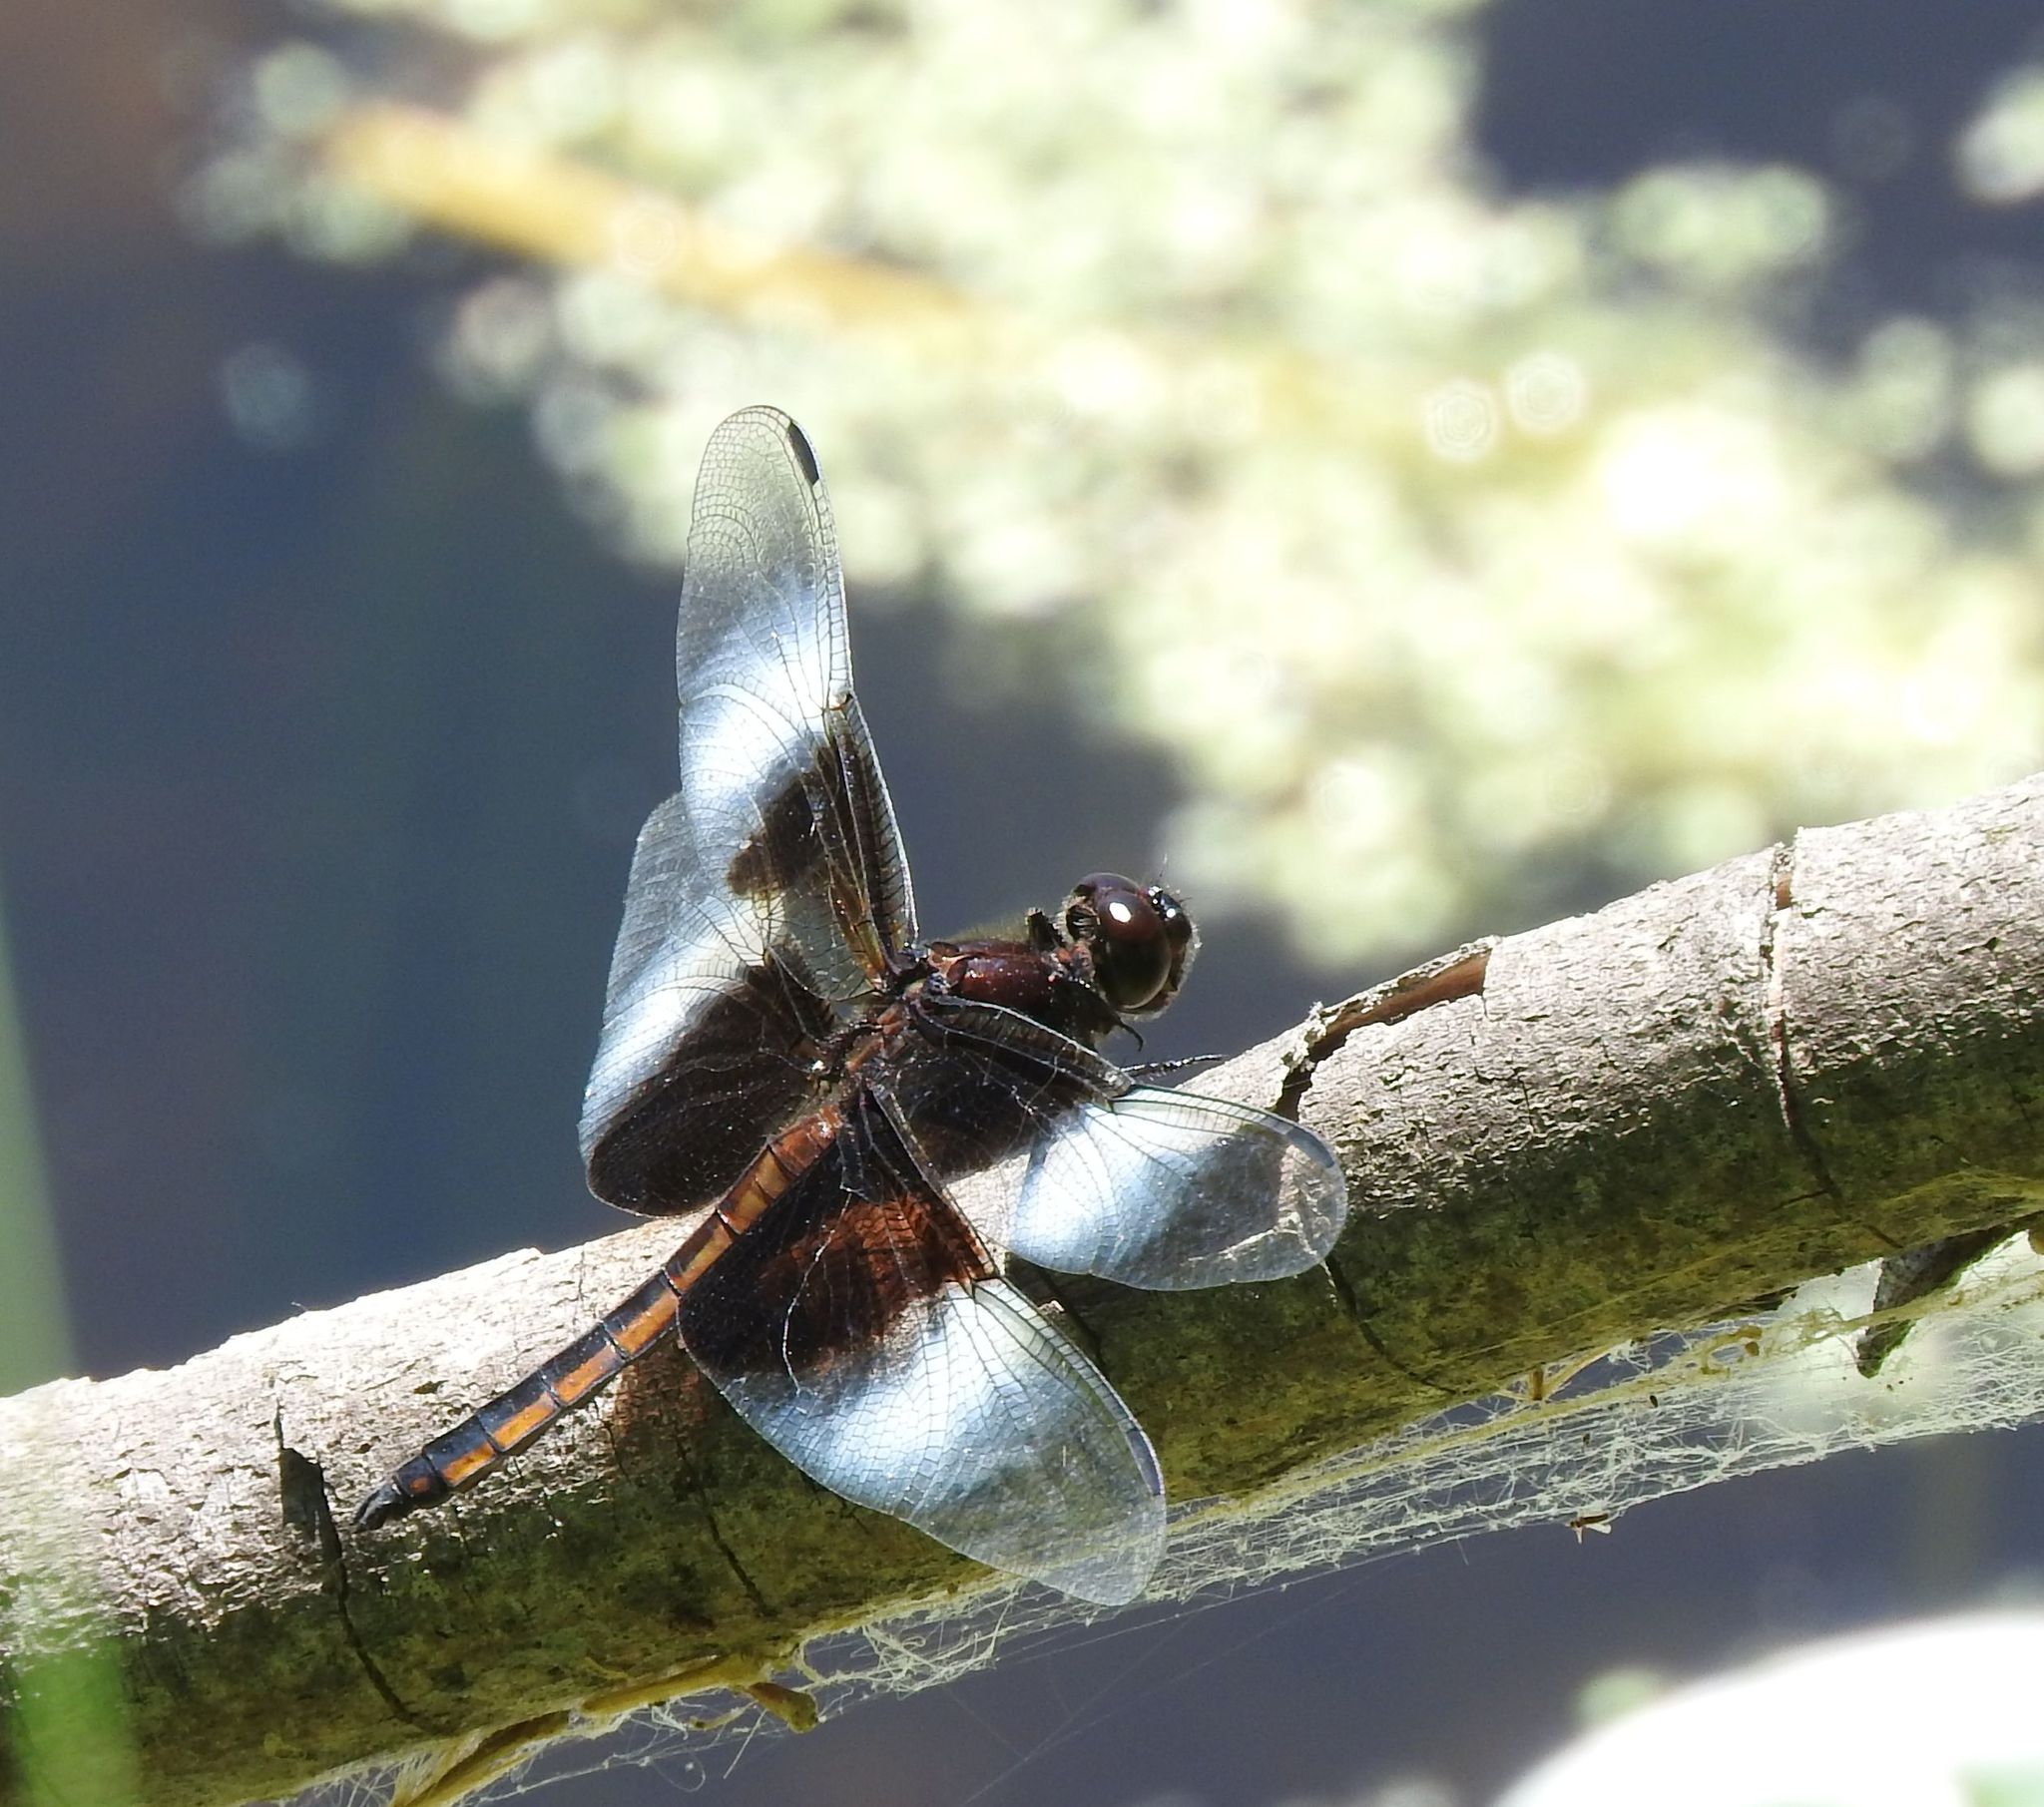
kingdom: Animalia
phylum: Arthropoda
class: Insecta
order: Odonata
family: Libellulidae
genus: Libellula
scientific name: Libellula luctuosa
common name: Widow skimmer
